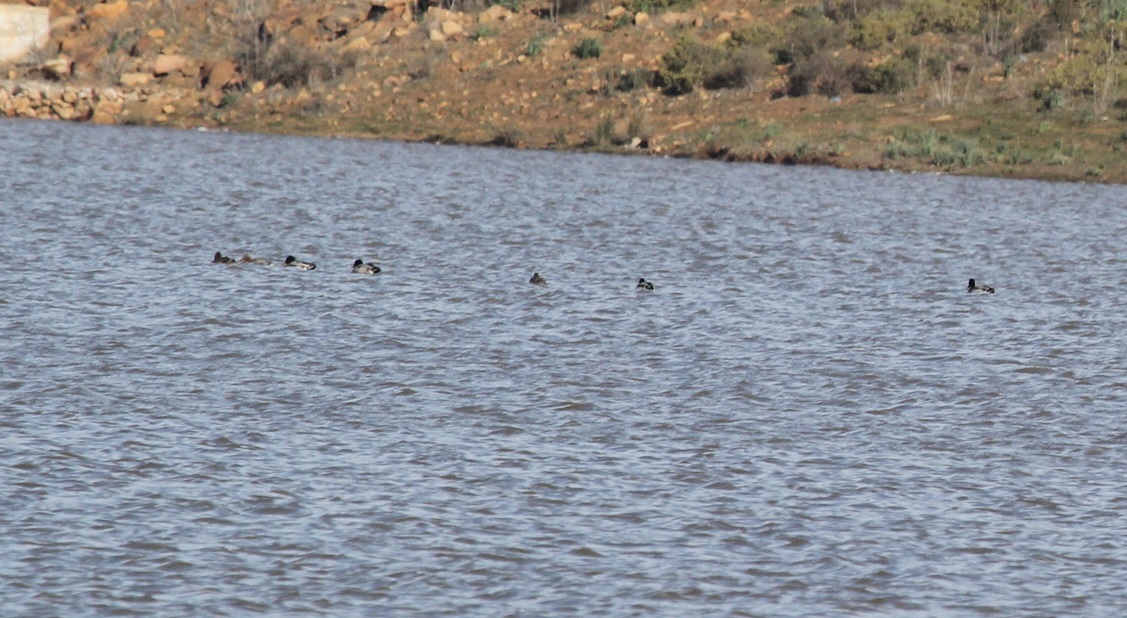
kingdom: Animalia
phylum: Chordata
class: Aves
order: Anseriformes
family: Anatidae
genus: Anas
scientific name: Anas platyrhynchos
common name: Mallard
